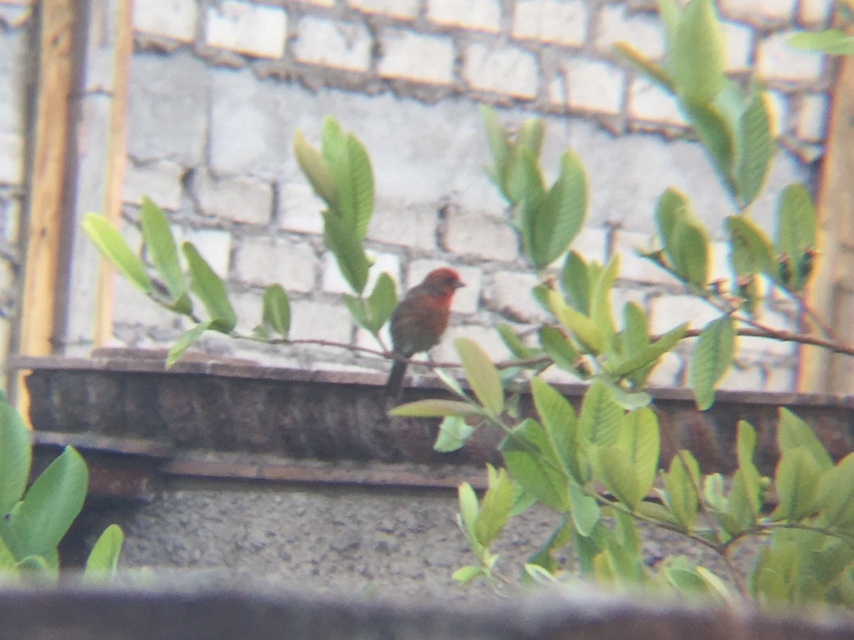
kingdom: Animalia
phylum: Chordata
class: Aves
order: Passeriformes
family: Fringillidae
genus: Haemorhous
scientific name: Haemorhous mexicanus
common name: House finch
